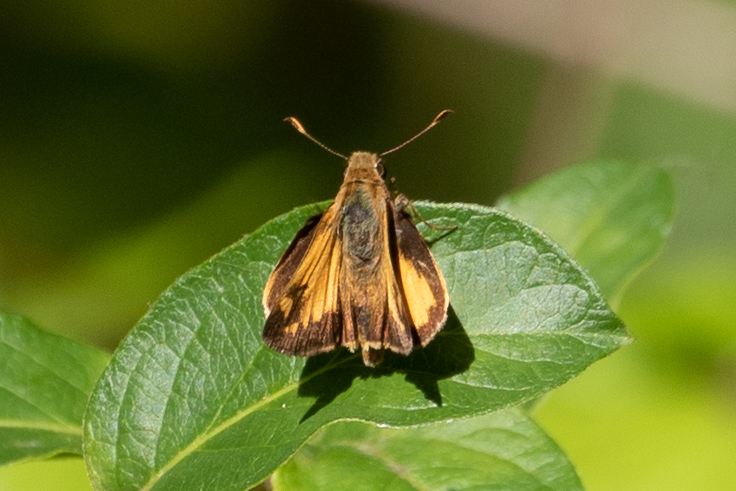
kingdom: Animalia
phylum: Arthropoda
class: Insecta
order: Lepidoptera
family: Hesperiidae
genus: Lon
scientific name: Lon zabulon
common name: Zabulon skipper
